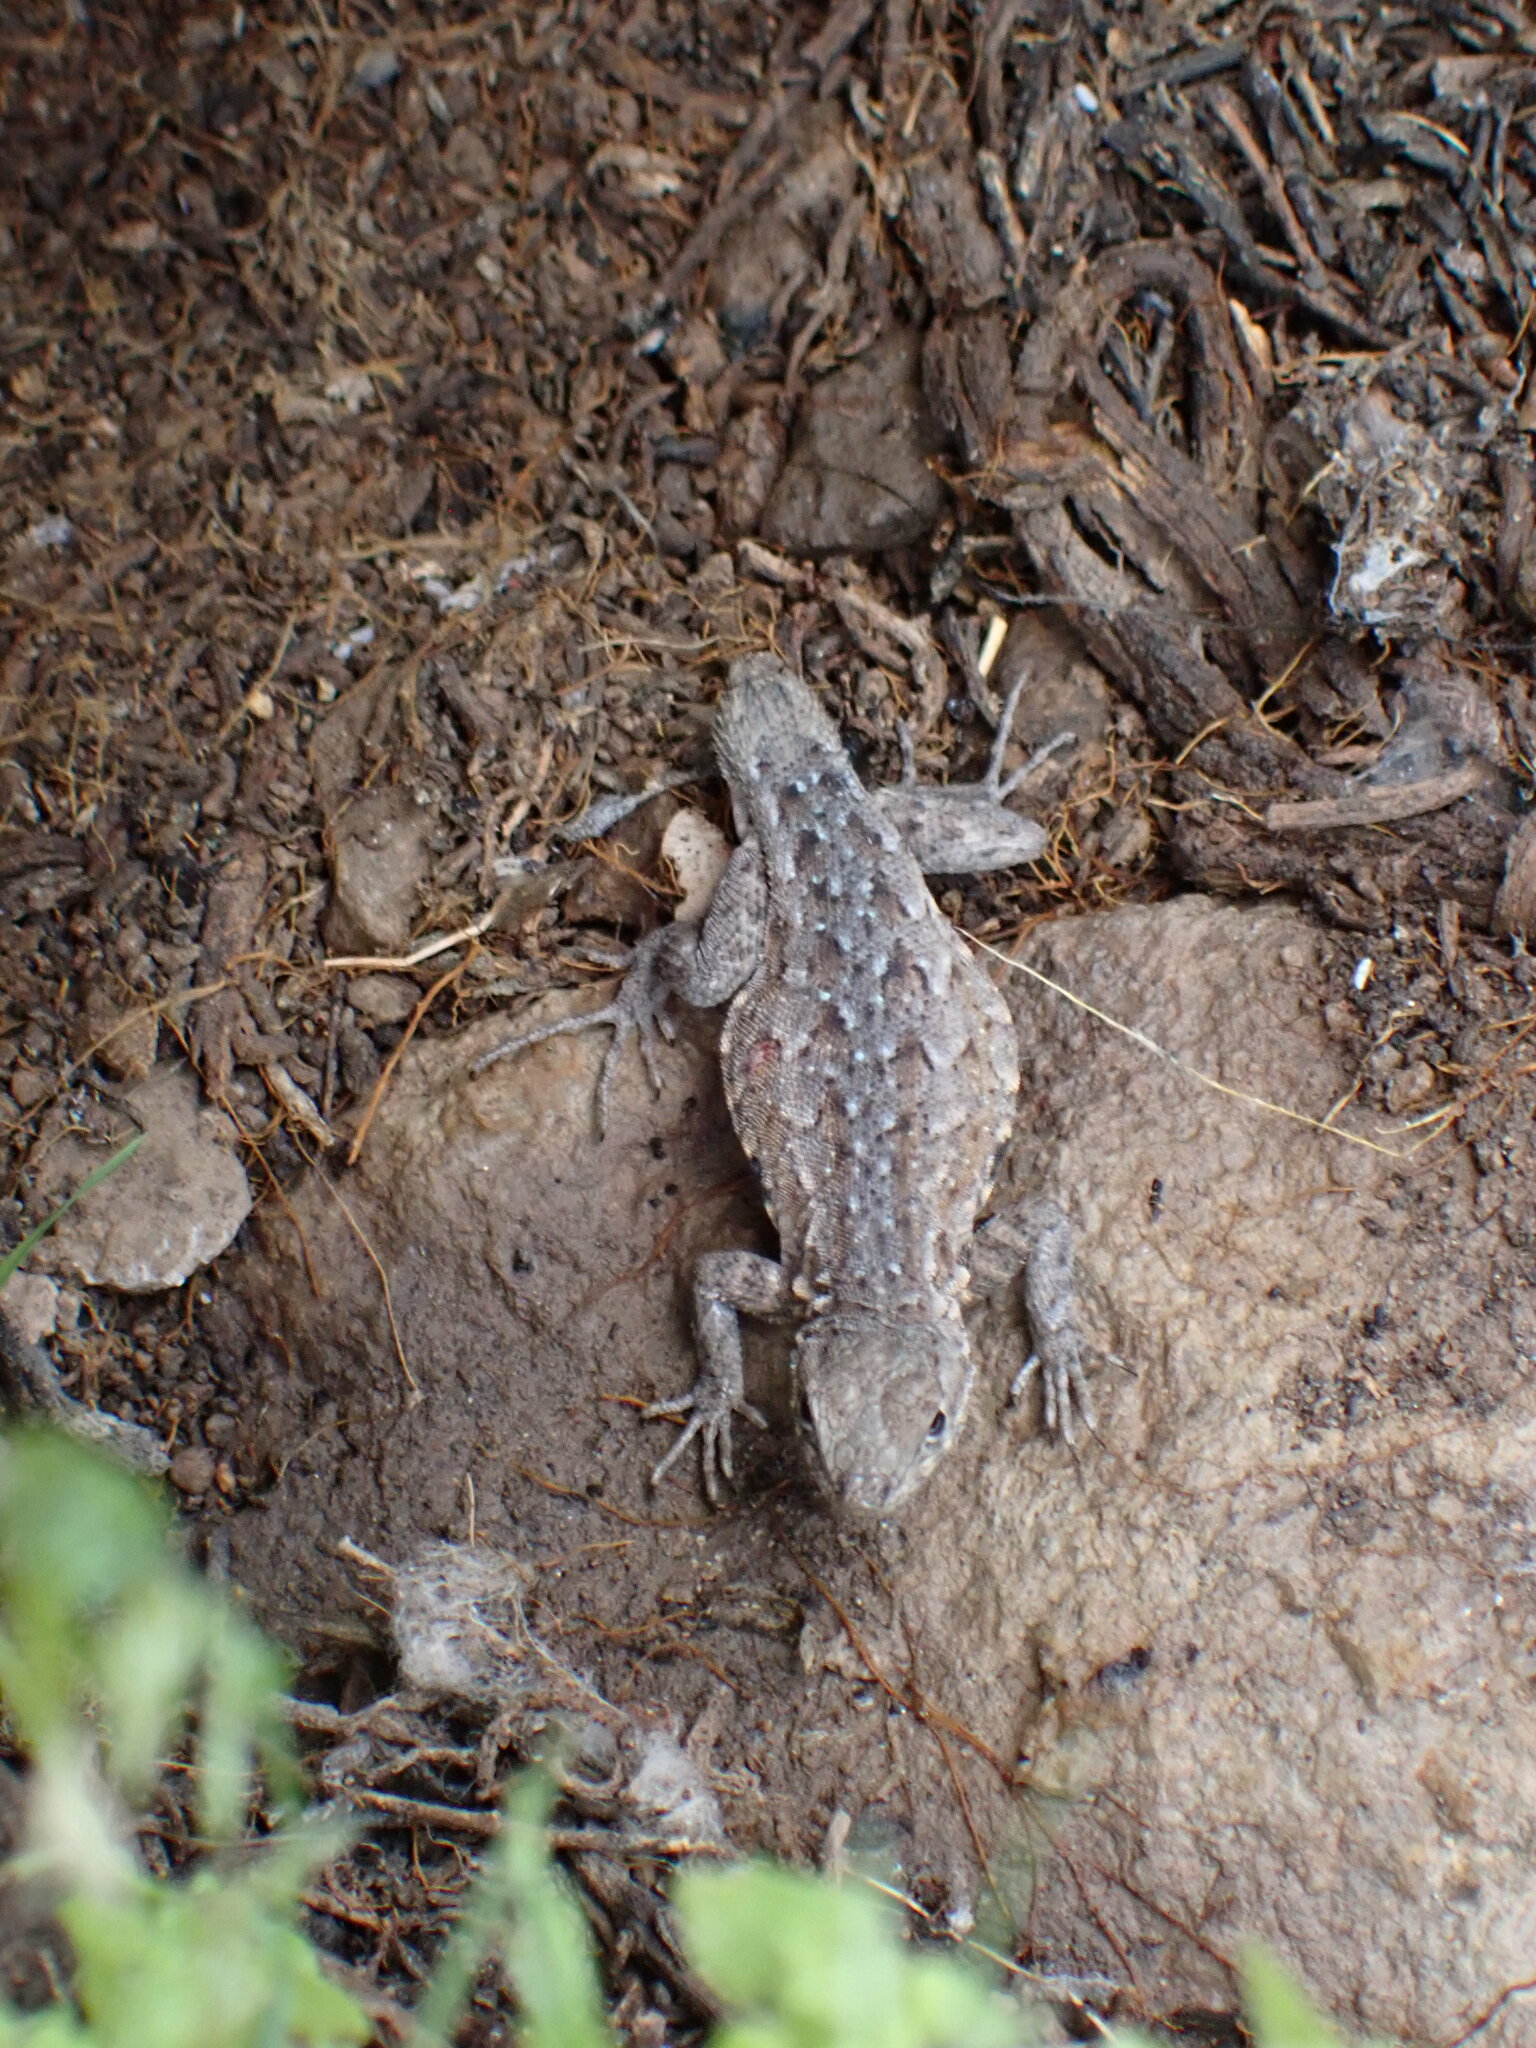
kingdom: Animalia
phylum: Chordata
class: Squamata
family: Phrynosomatidae
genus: Uta
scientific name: Uta stansburiana
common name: Side-blotched lizard
